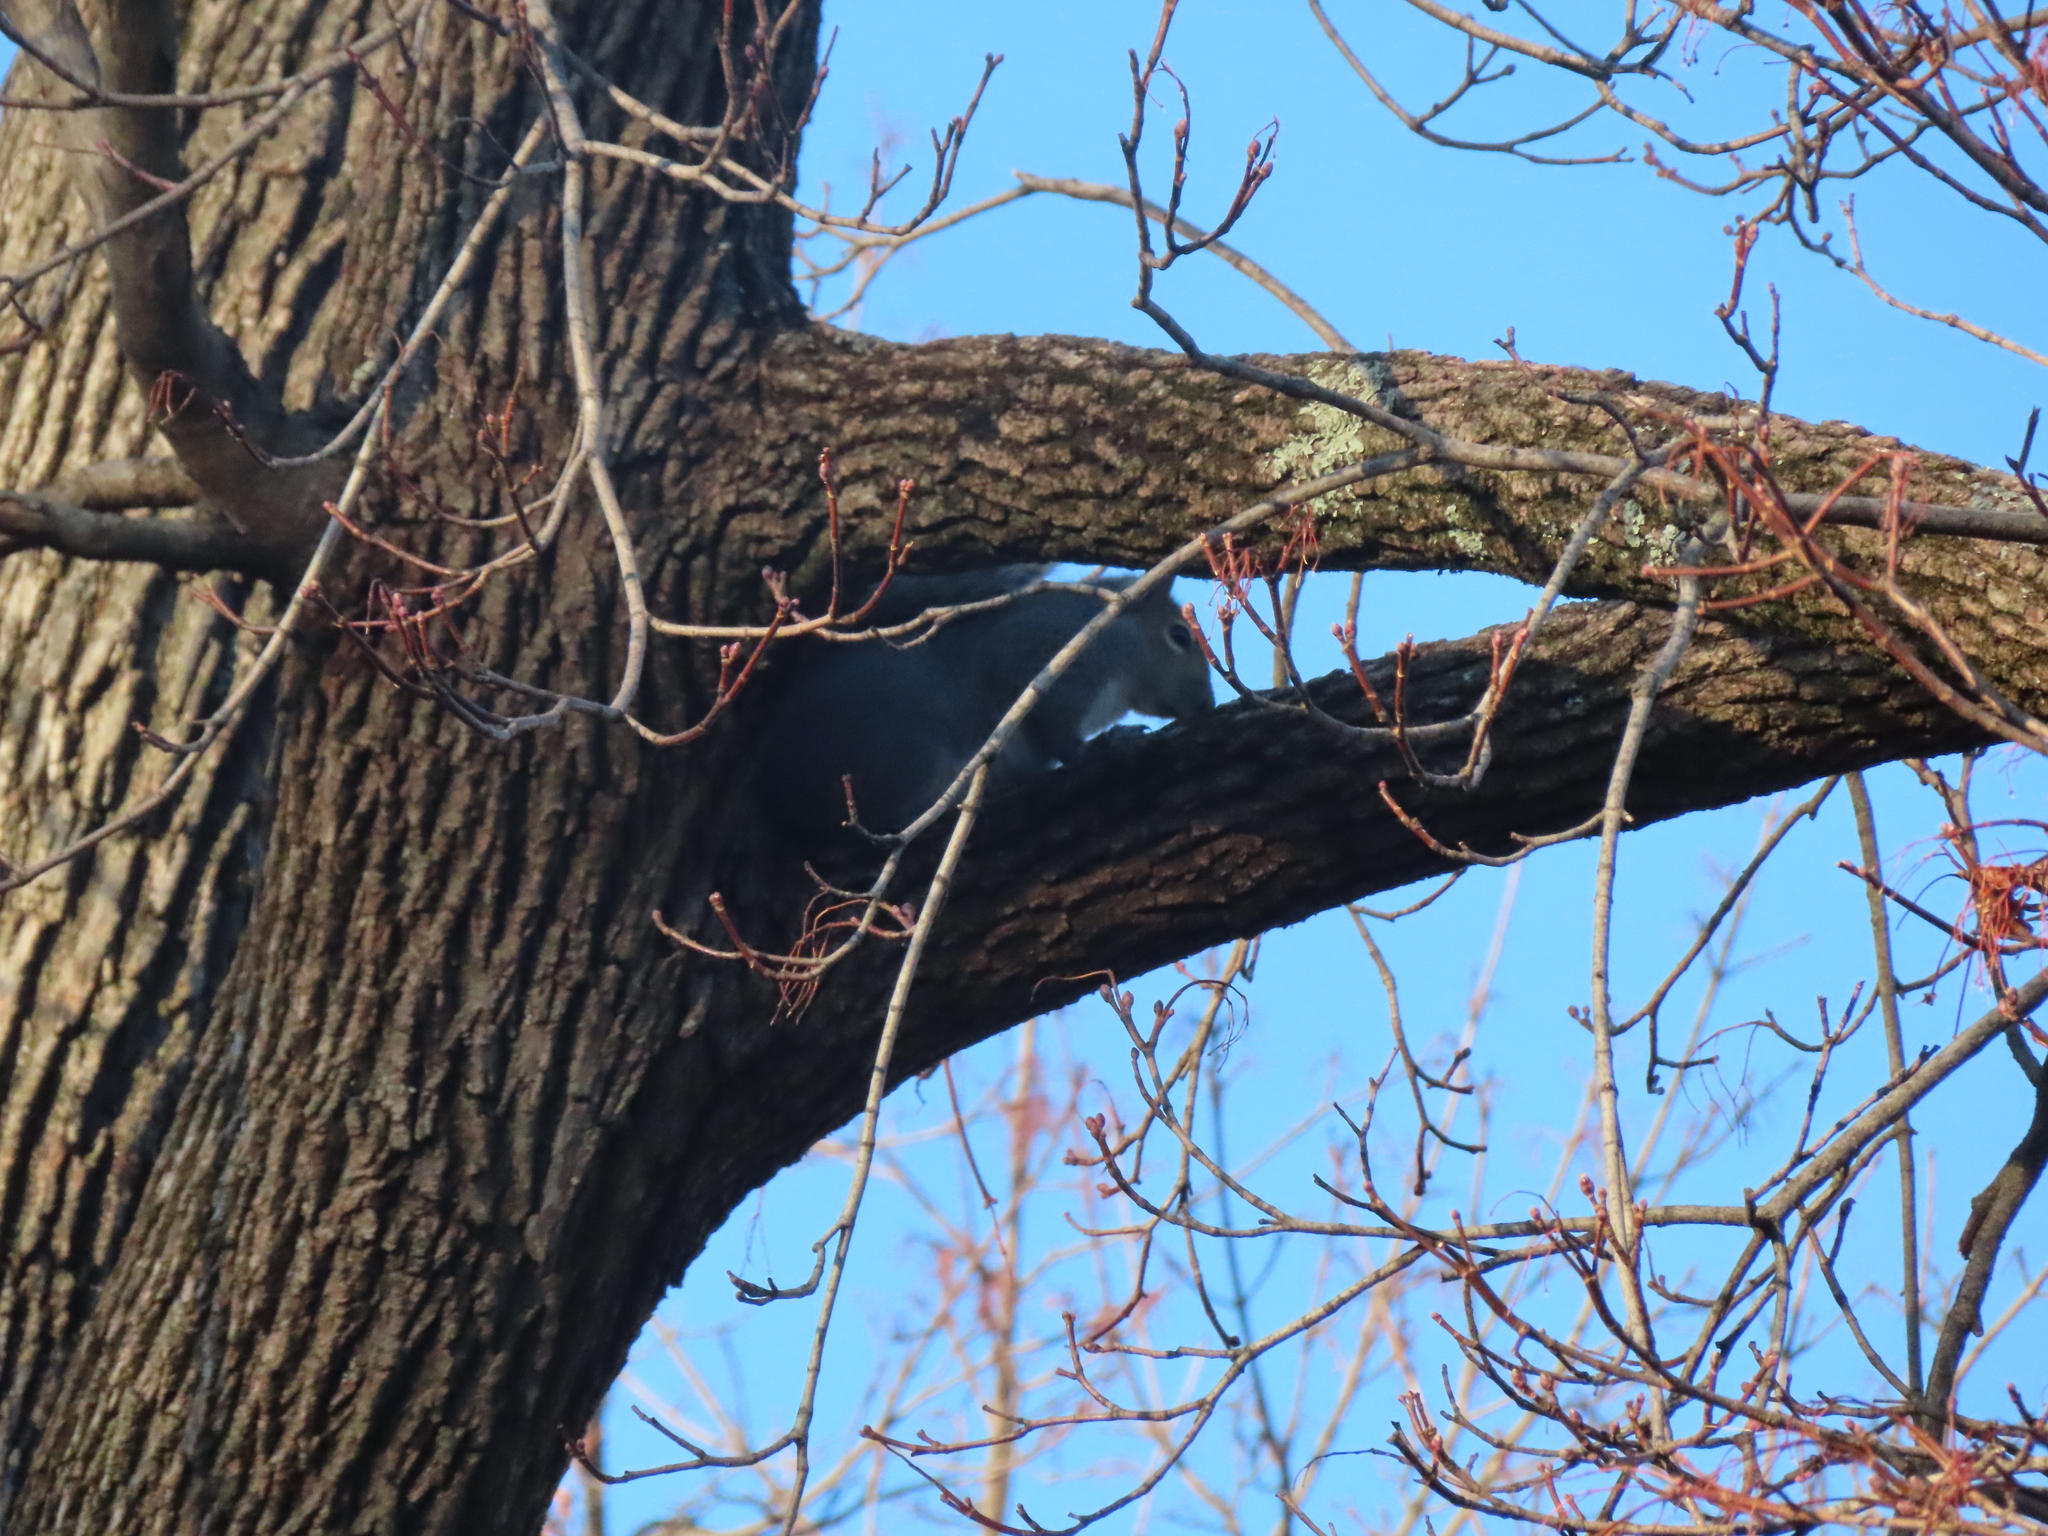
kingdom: Animalia
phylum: Chordata
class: Mammalia
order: Rodentia
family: Sciuridae
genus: Sciurus
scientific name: Sciurus carolinensis
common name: Eastern gray squirrel
